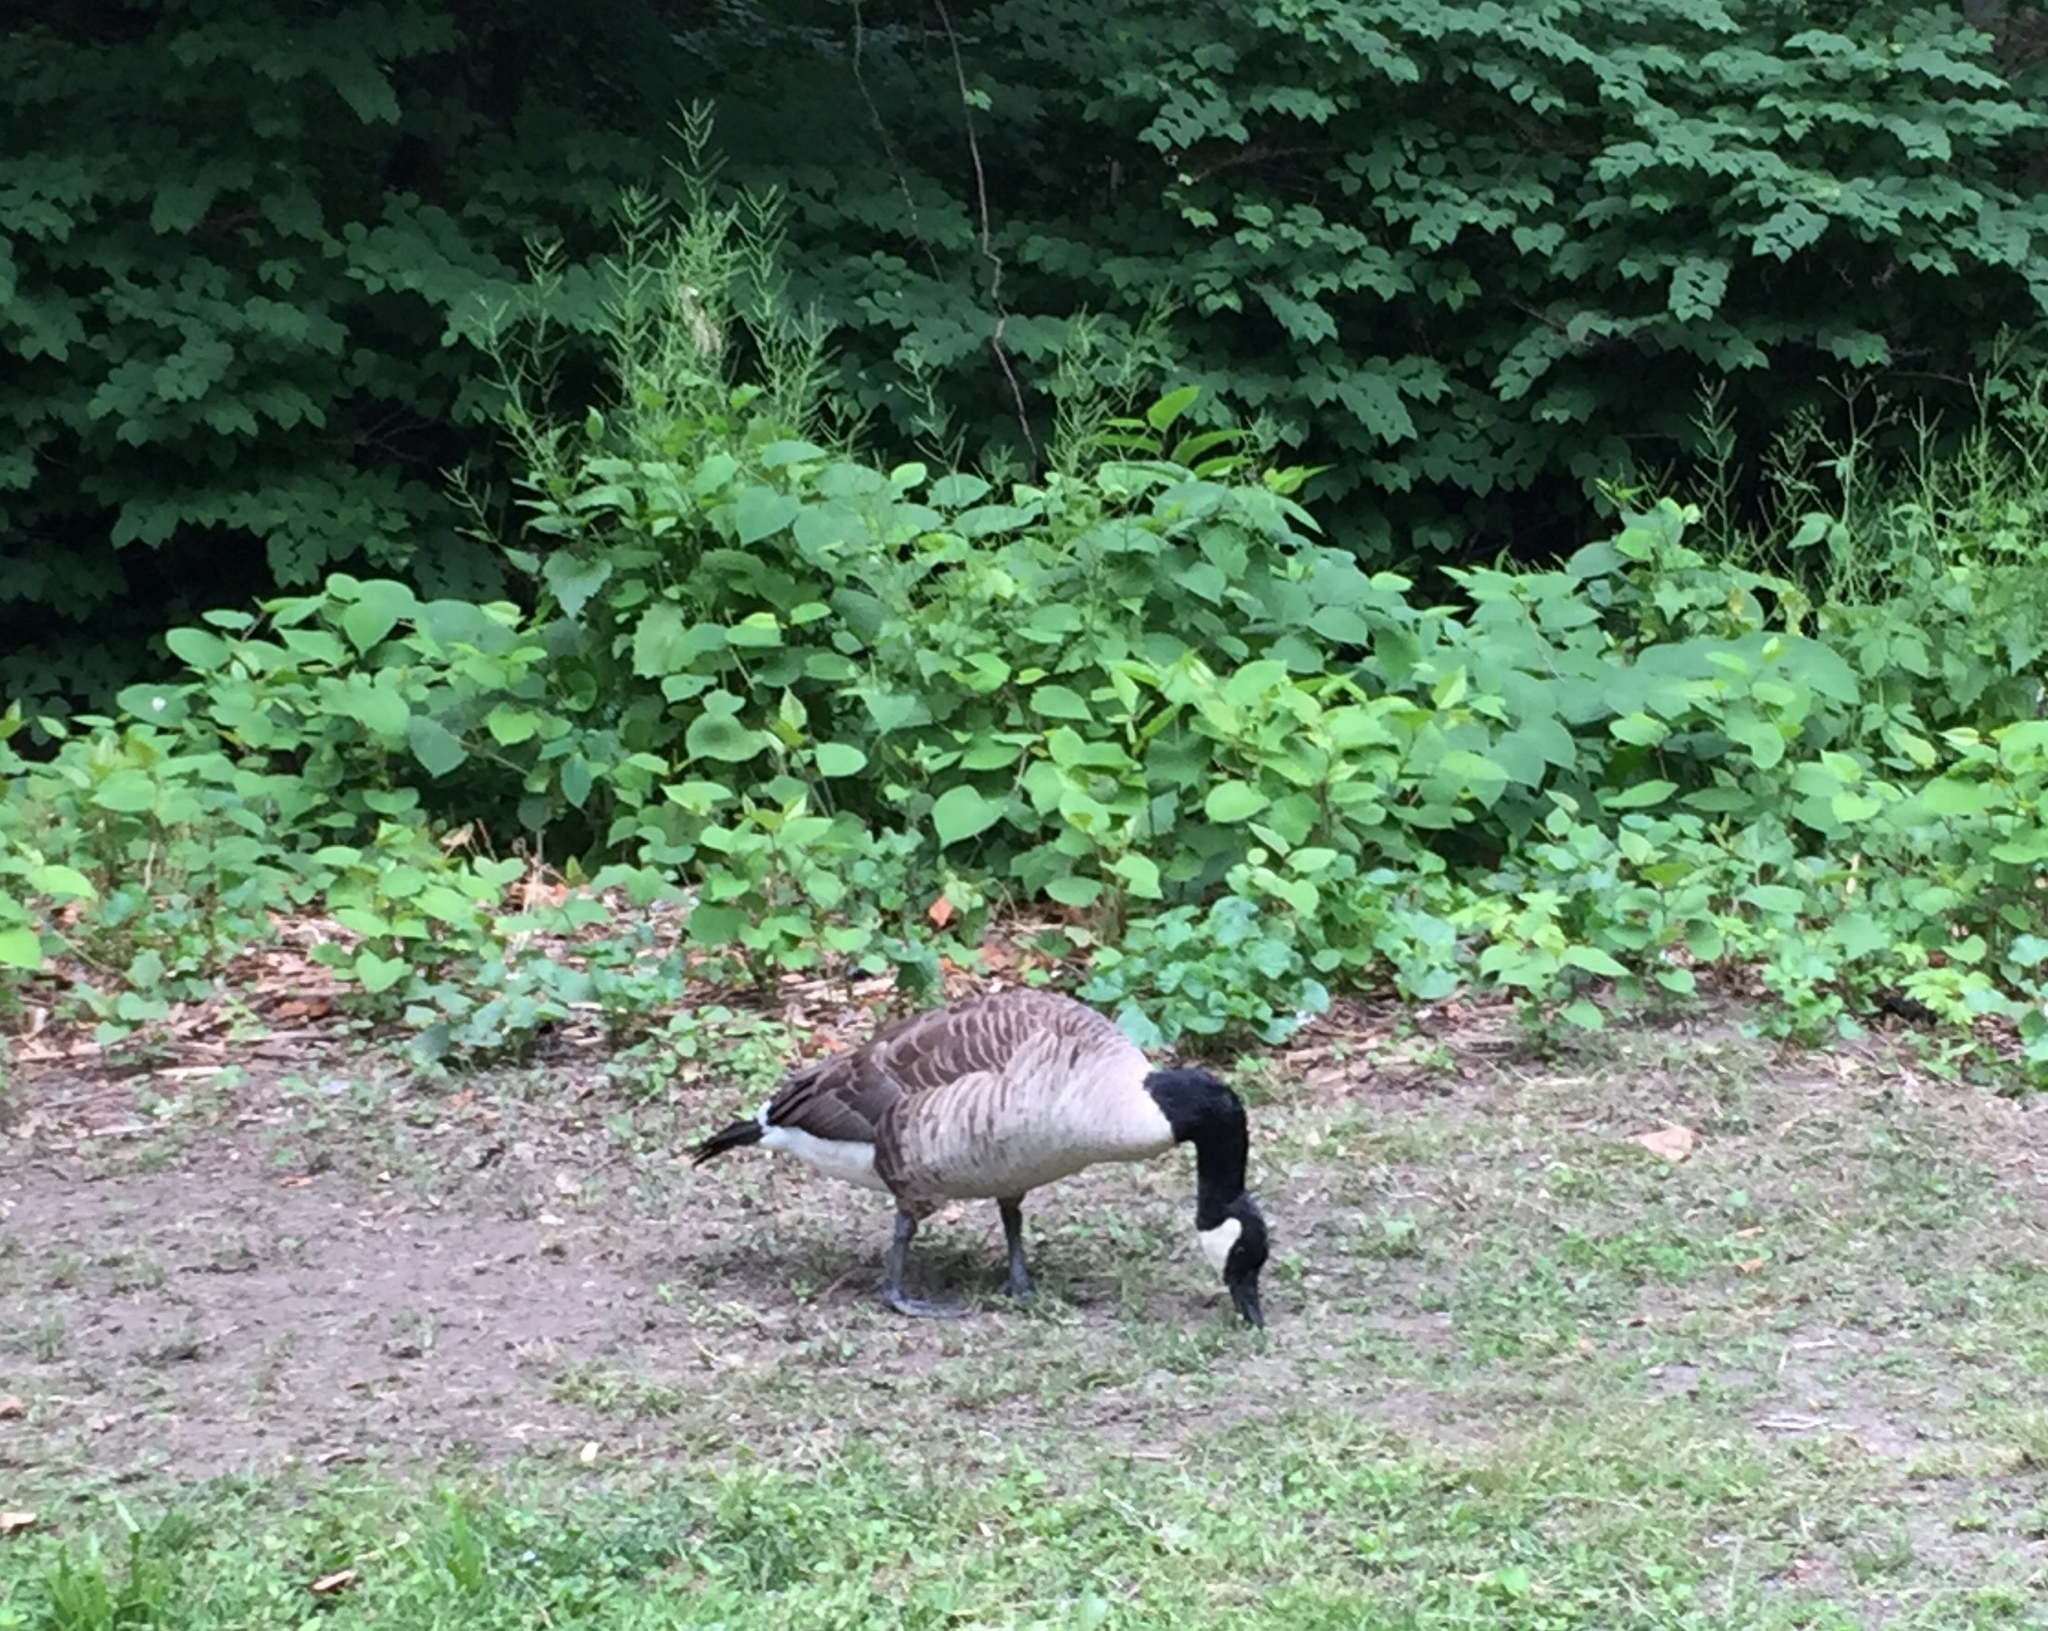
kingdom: Animalia
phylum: Chordata
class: Aves
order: Anseriformes
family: Anatidae
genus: Branta
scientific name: Branta canadensis
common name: Canada goose
